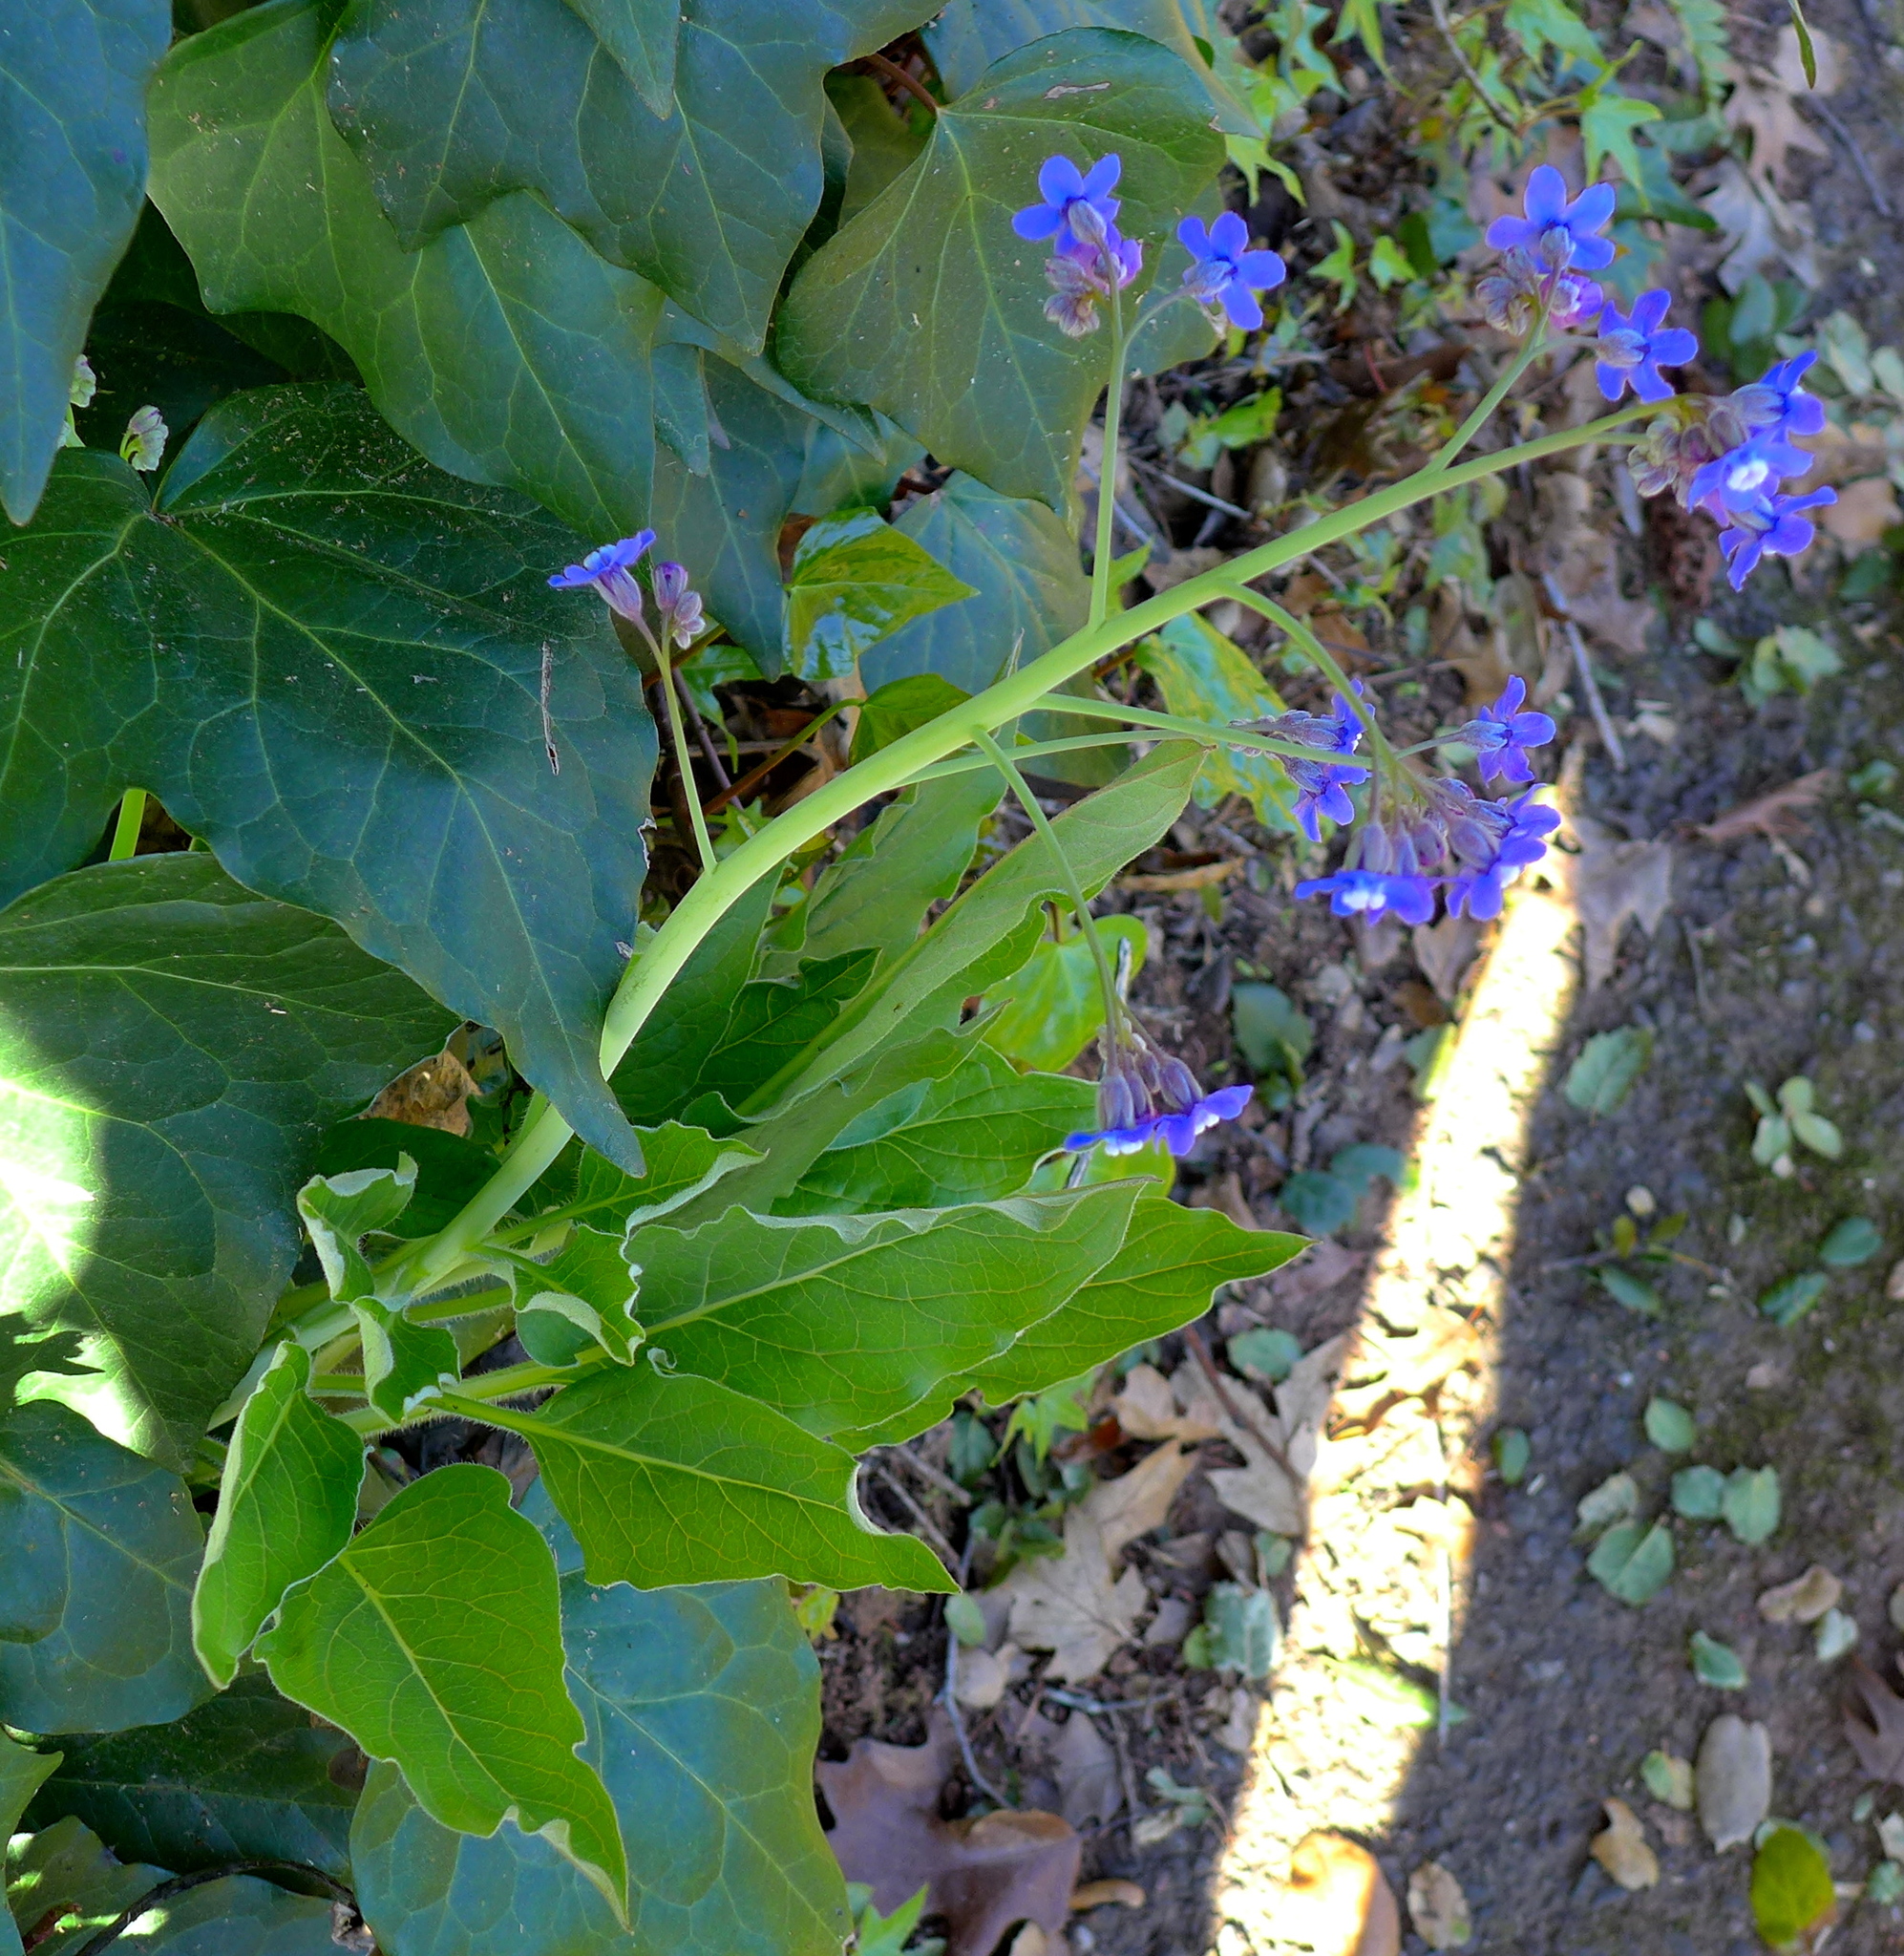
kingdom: Plantae
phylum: Tracheophyta
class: Magnoliopsida
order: Boraginales
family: Boraginaceae
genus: Adelinia
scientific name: Adelinia grande
